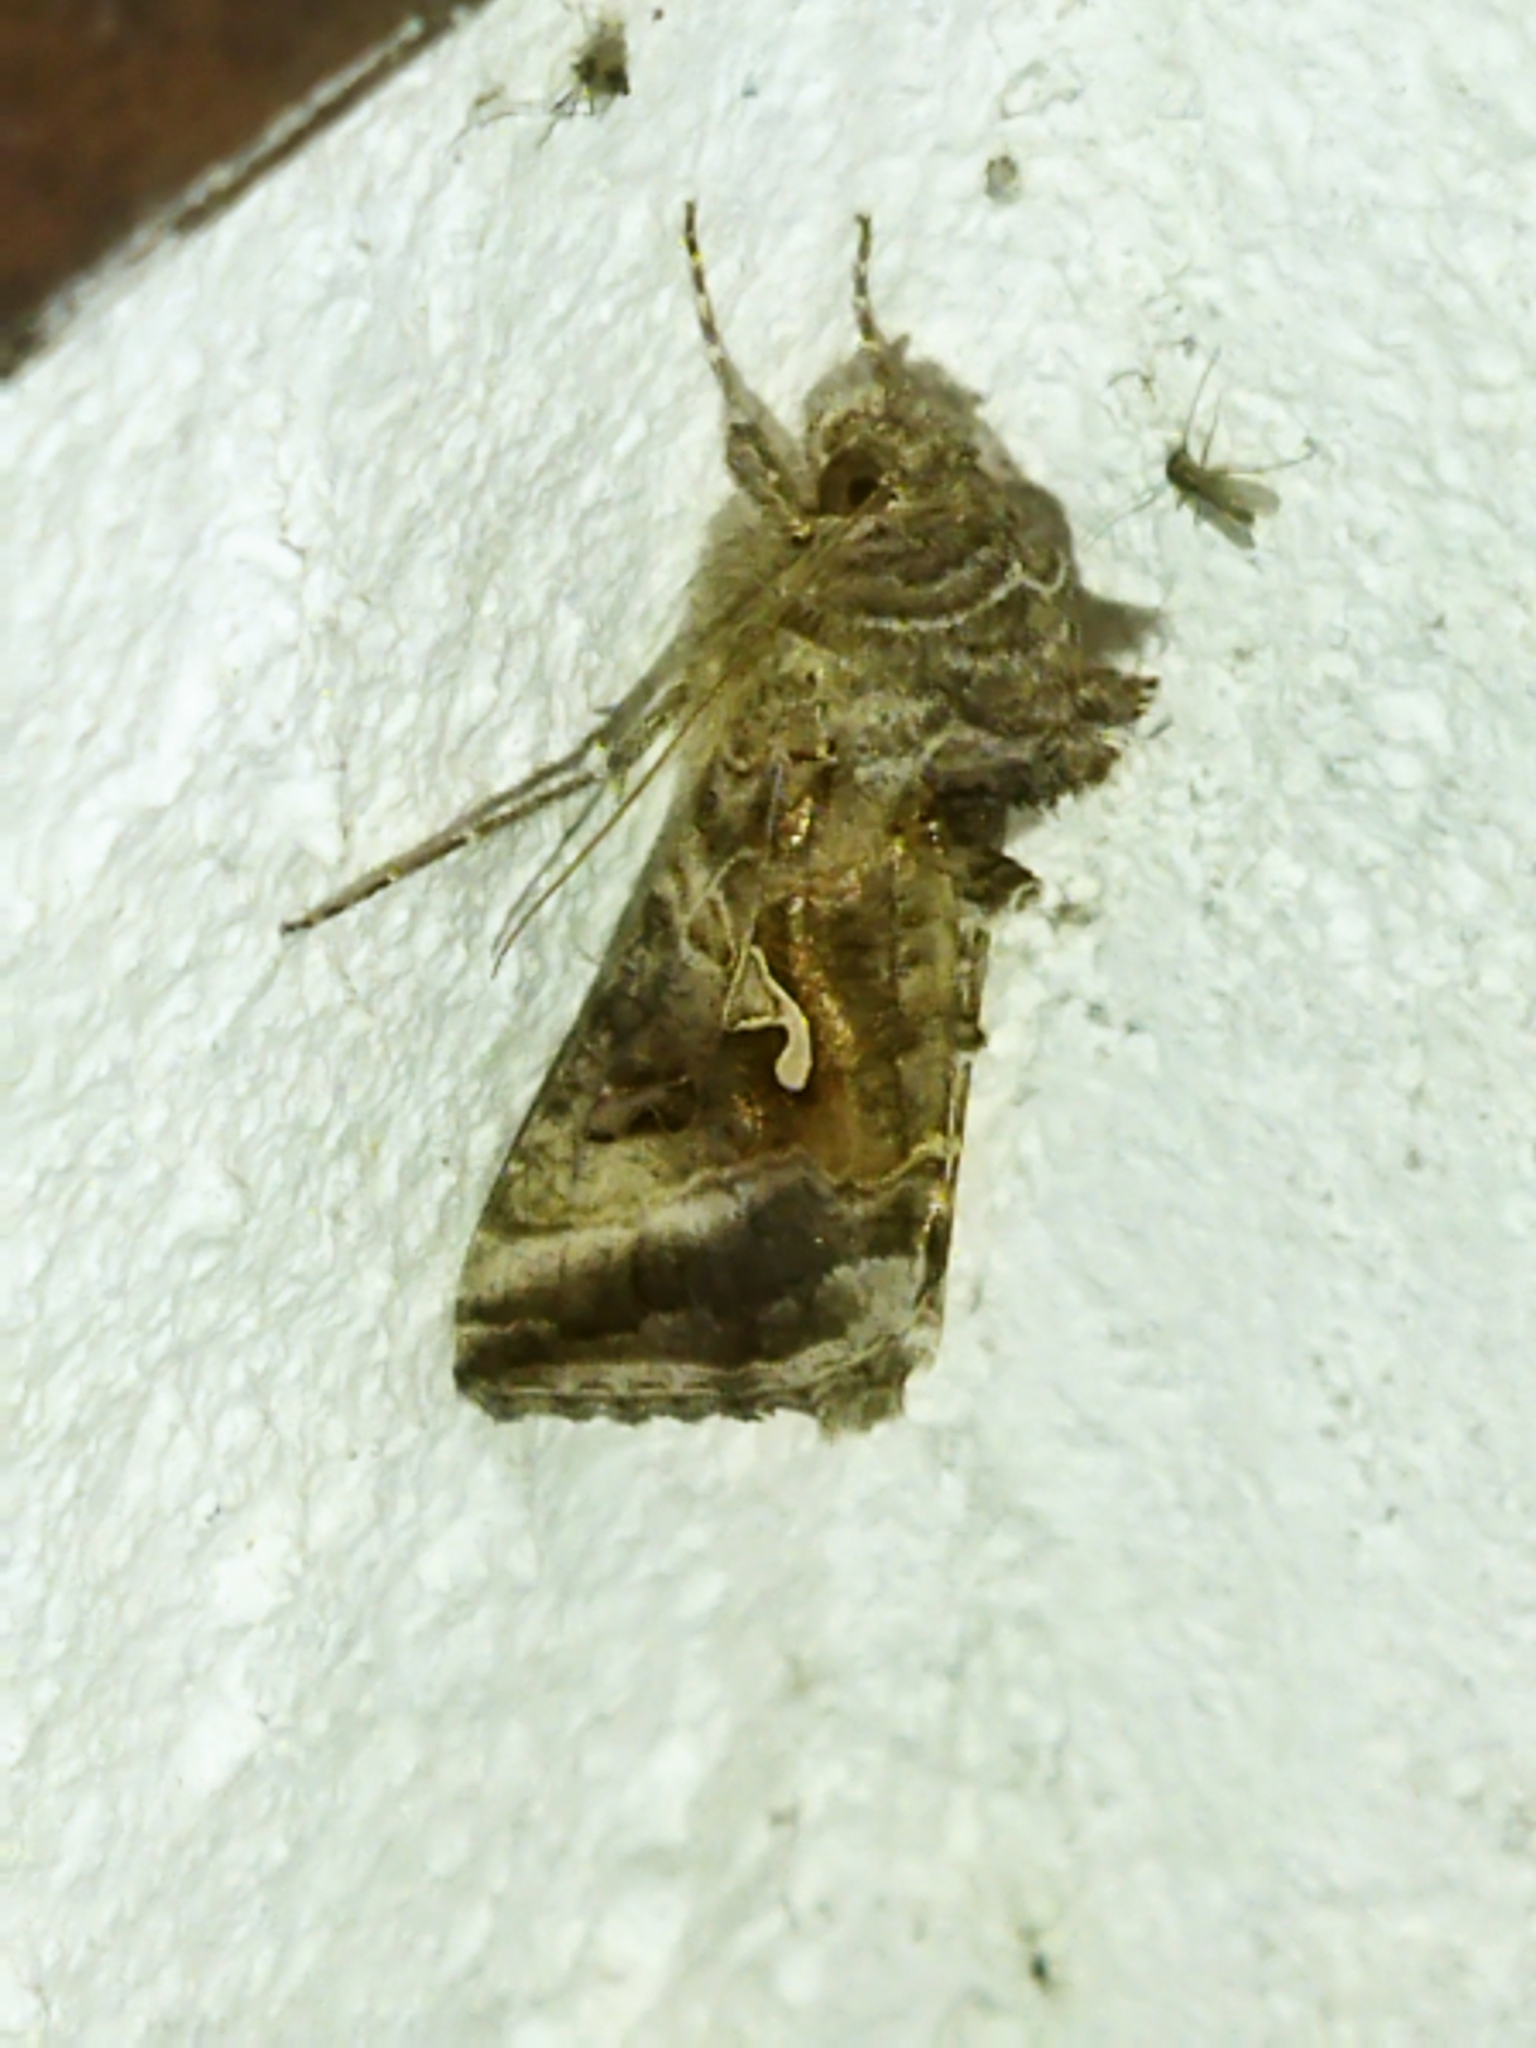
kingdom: Animalia
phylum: Arthropoda
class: Insecta
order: Lepidoptera
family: Noctuidae
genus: Autographa
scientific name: Autographa gamma
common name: Silver y
